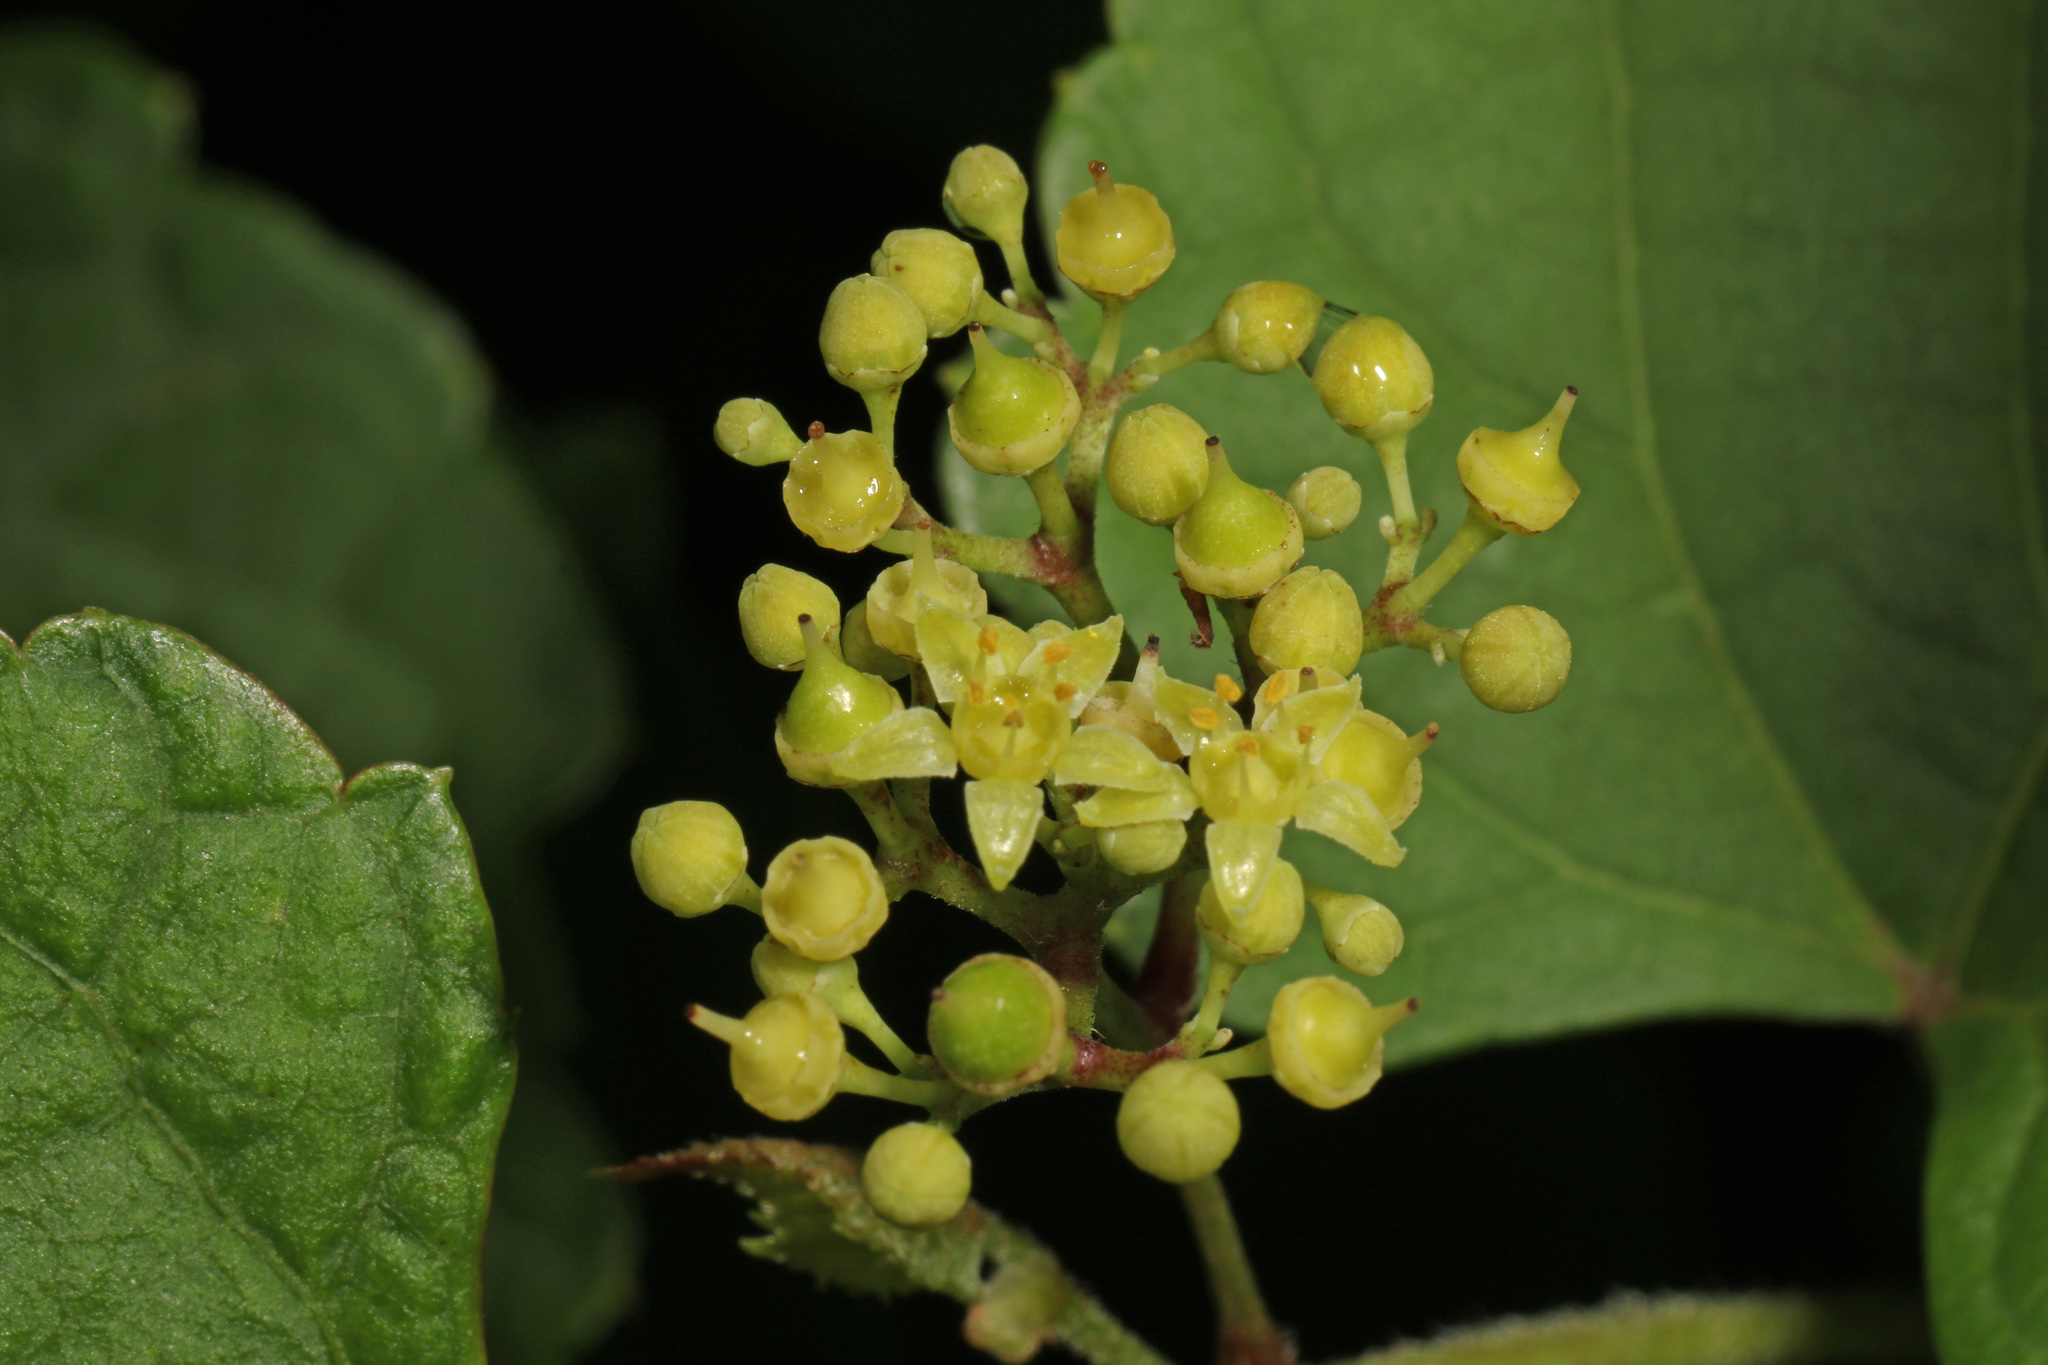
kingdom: Plantae
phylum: Tracheophyta
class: Magnoliopsida
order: Vitales
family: Vitaceae
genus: Ampelopsis
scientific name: Ampelopsis glandulosa
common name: Amur peppervine
